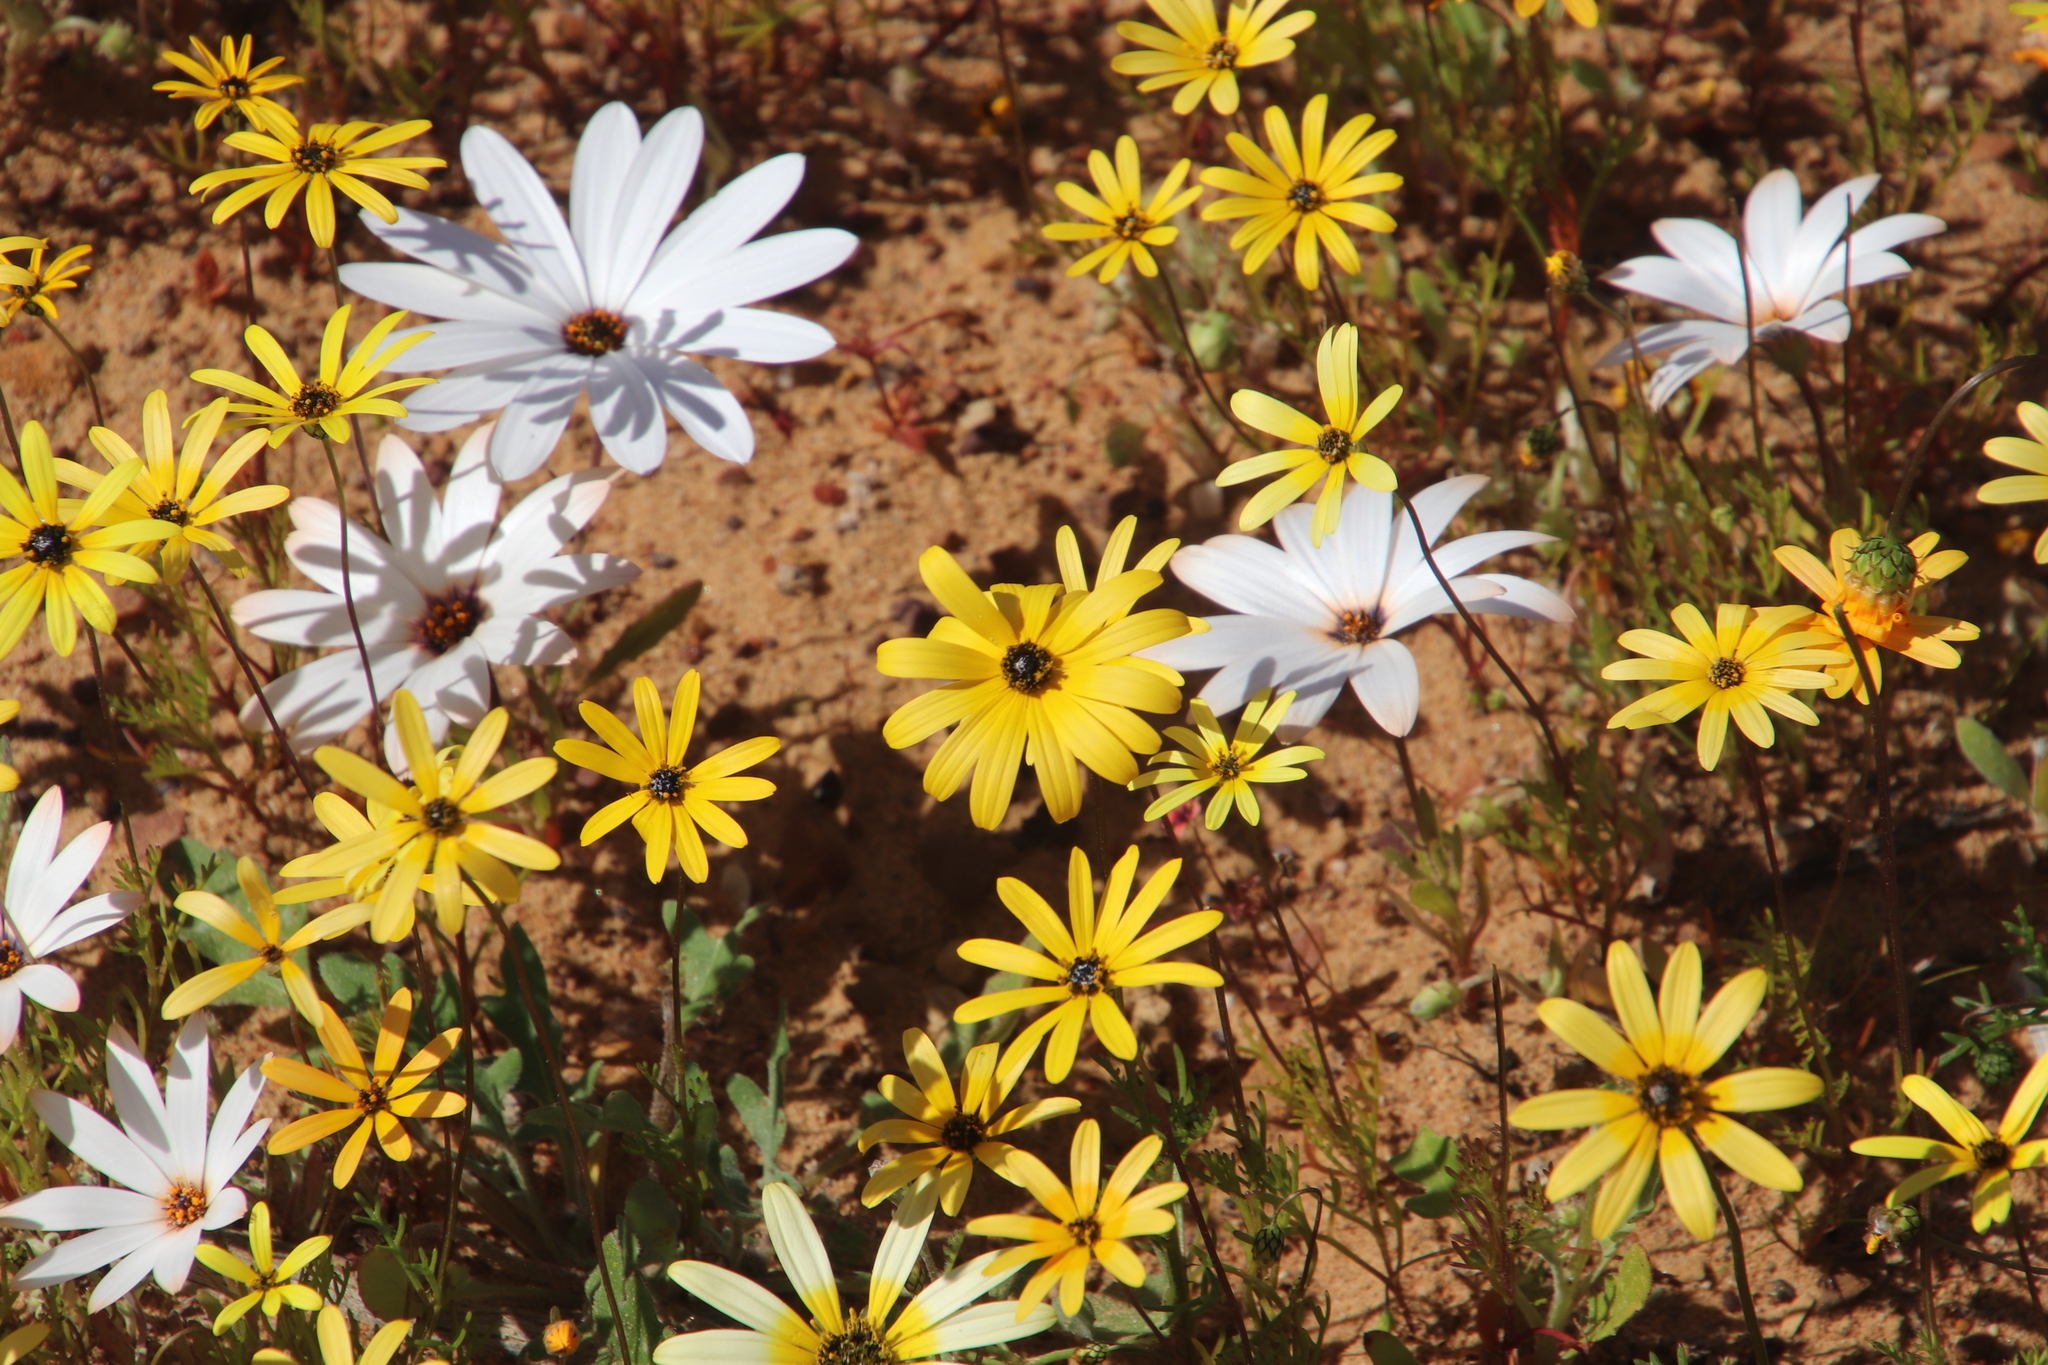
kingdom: Plantae
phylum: Tracheophyta
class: Magnoliopsida
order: Asterales
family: Asteraceae
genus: Dimorphotheca
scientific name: Dimorphotheca sinuata
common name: Glandular cape marigold
